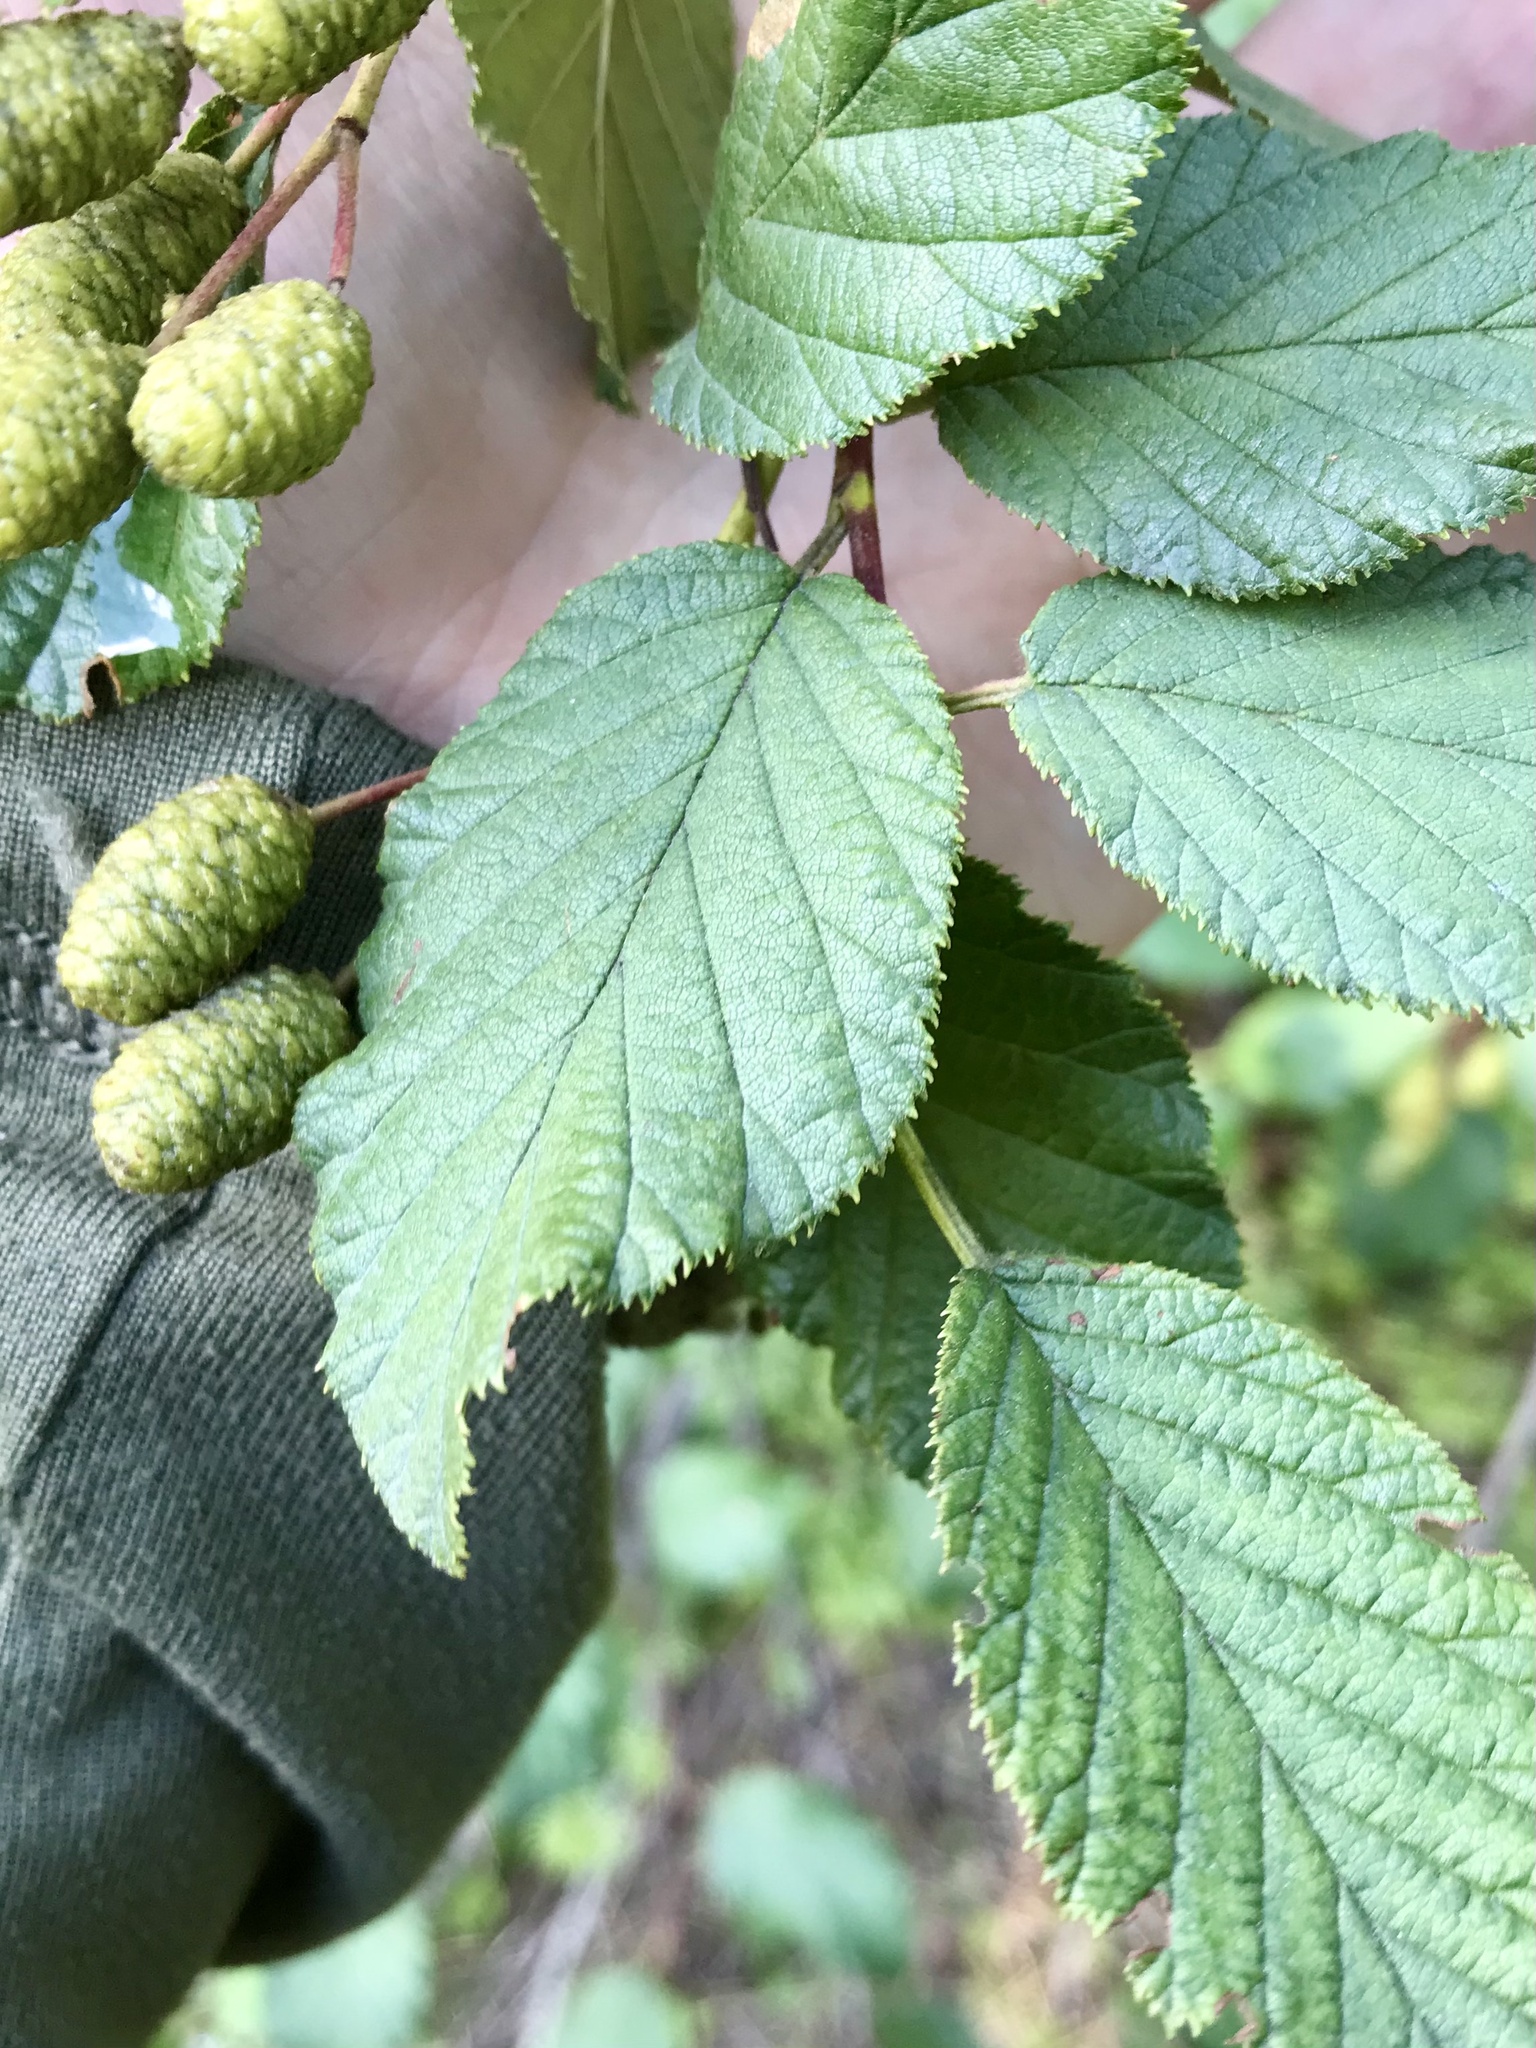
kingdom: Plantae
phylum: Tracheophyta
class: Magnoliopsida
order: Fagales
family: Betulaceae
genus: Alnus
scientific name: Alnus alnobetula
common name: Green alder
